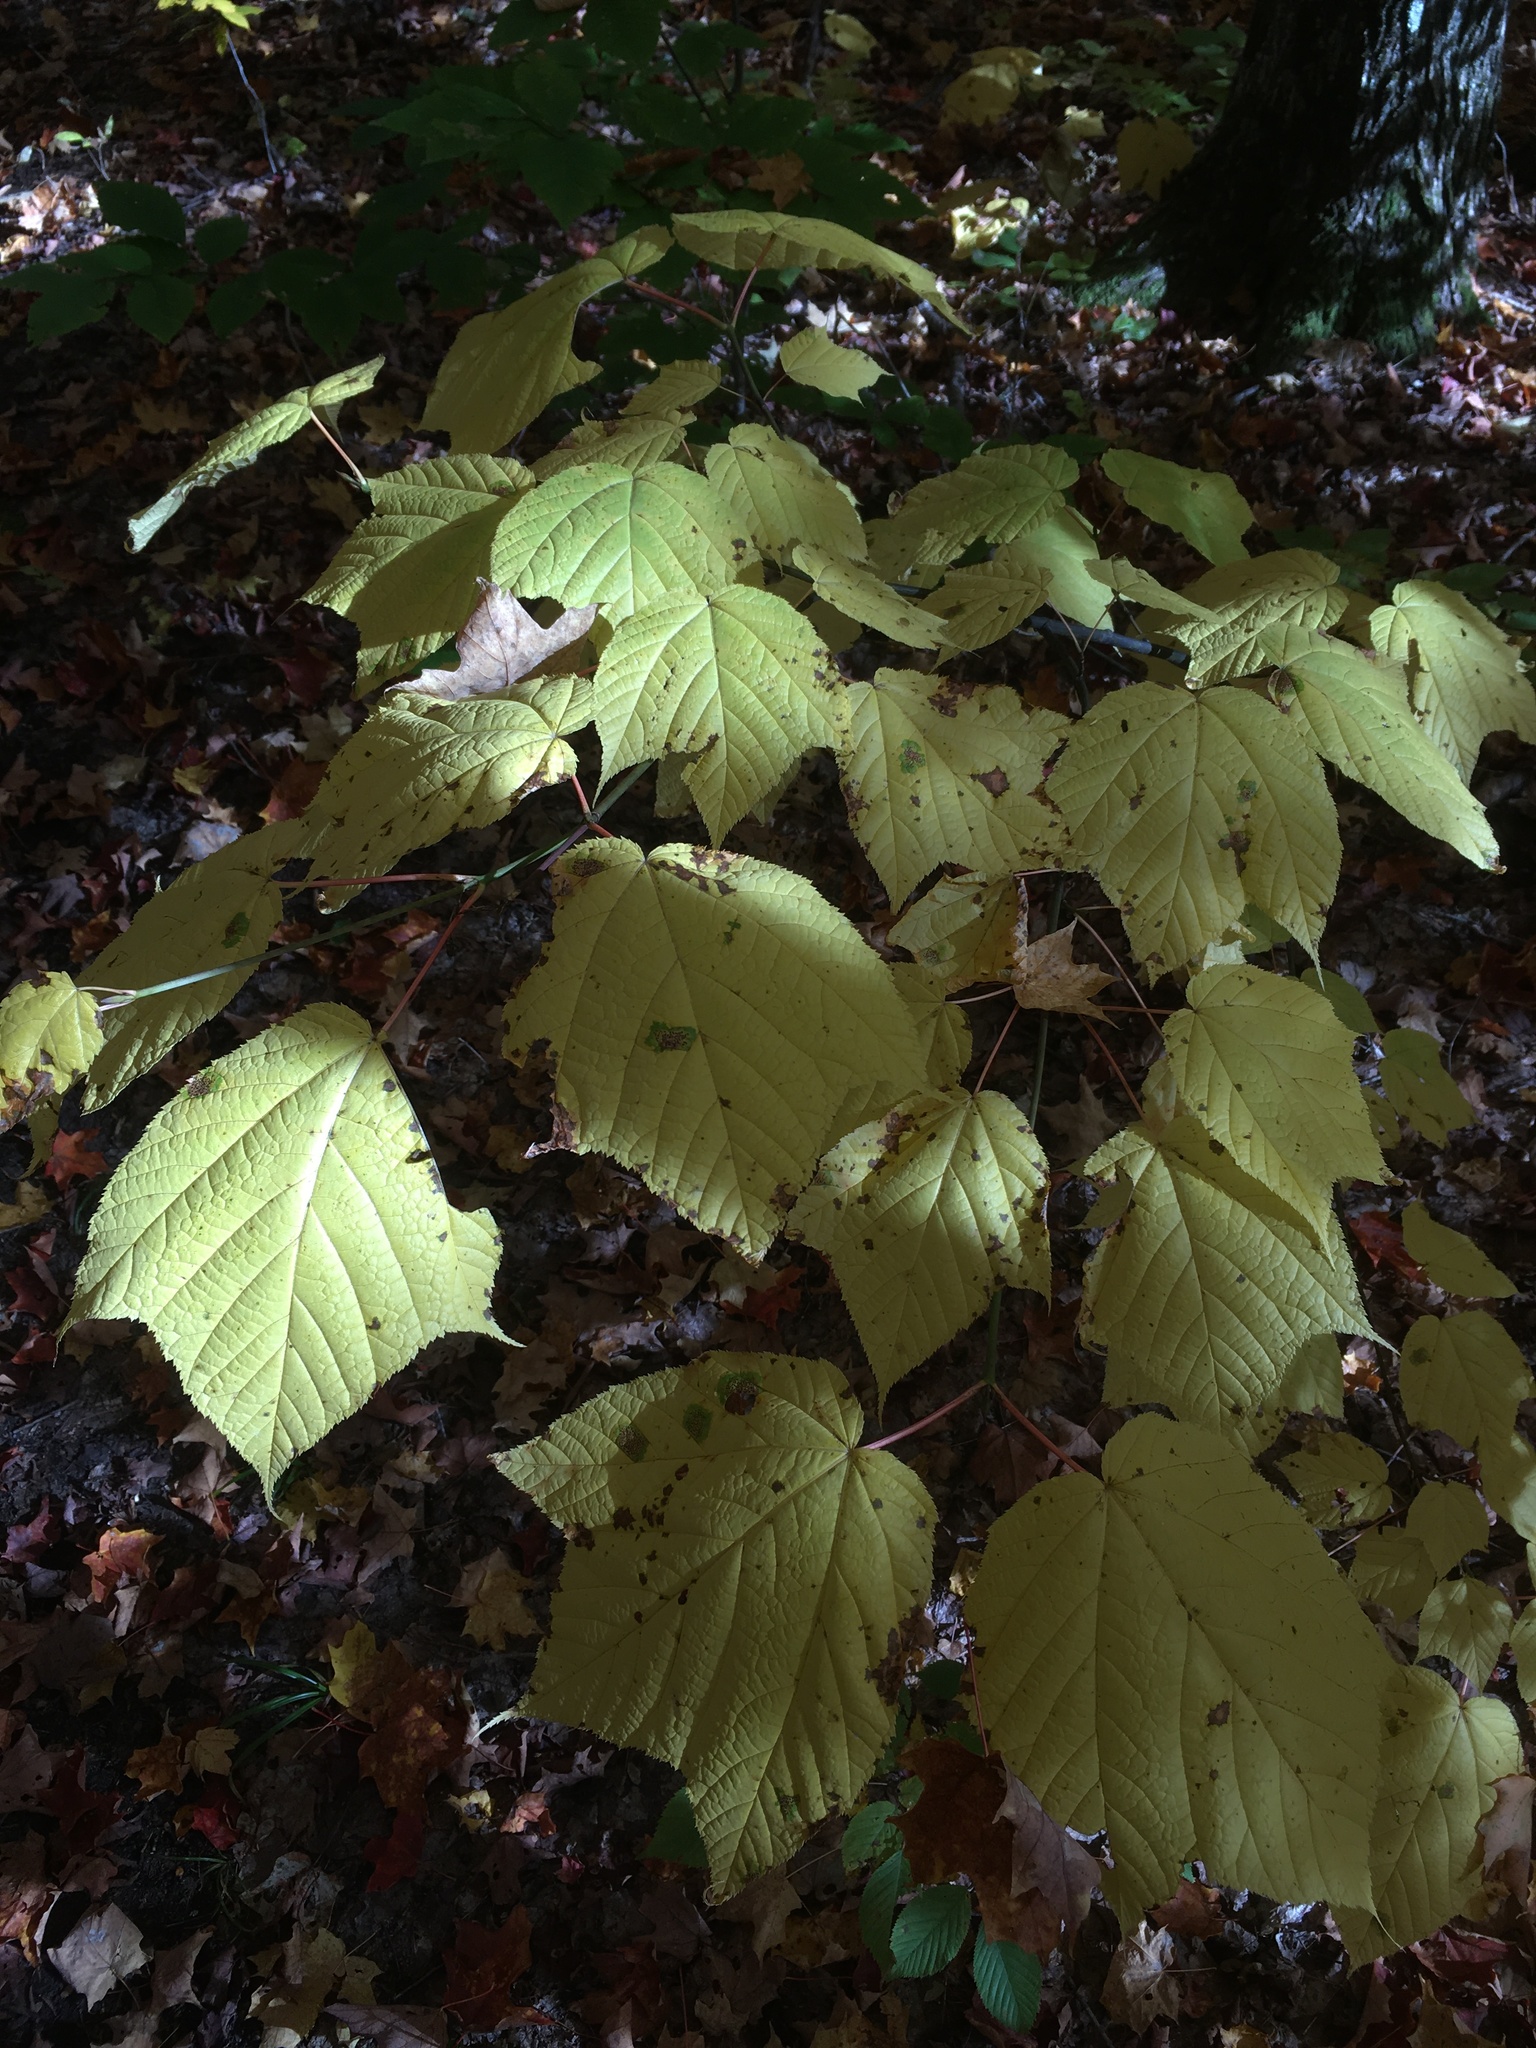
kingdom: Plantae
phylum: Tracheophyta
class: Magnoliopsida
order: Sapindales
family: Sapindaceae
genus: Acer
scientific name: Acer pensylvanicum
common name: Moosewood
